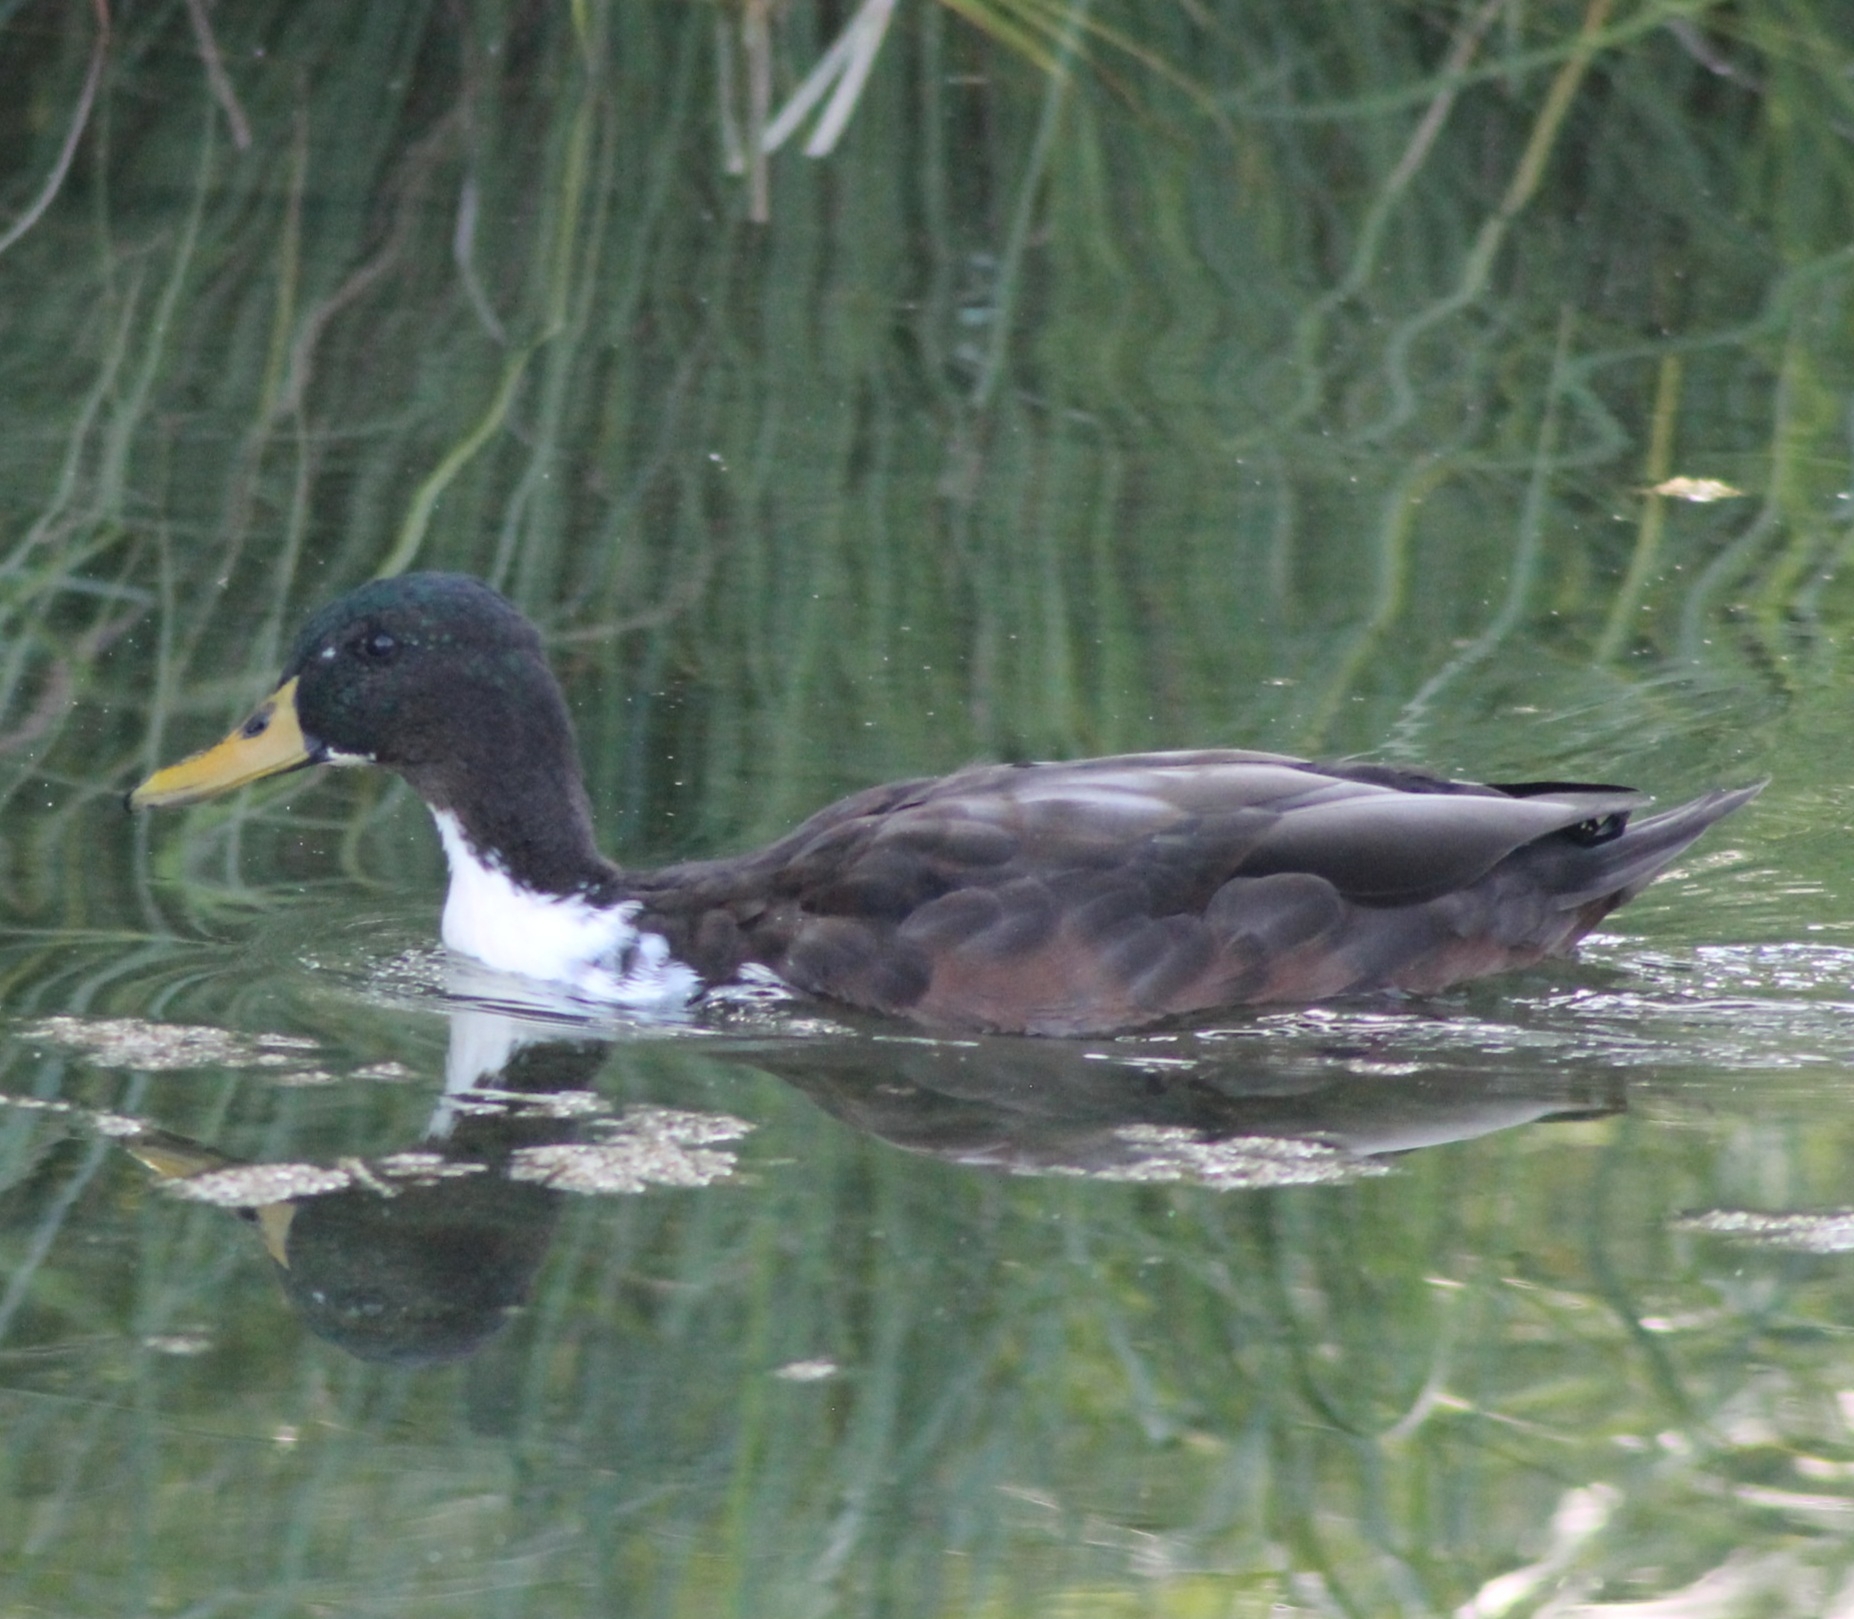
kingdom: Animalia
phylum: Chordata
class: Aves
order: Anseriformes
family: Anatidae
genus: Anas
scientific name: Anas platyrhynchos
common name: Mallard
